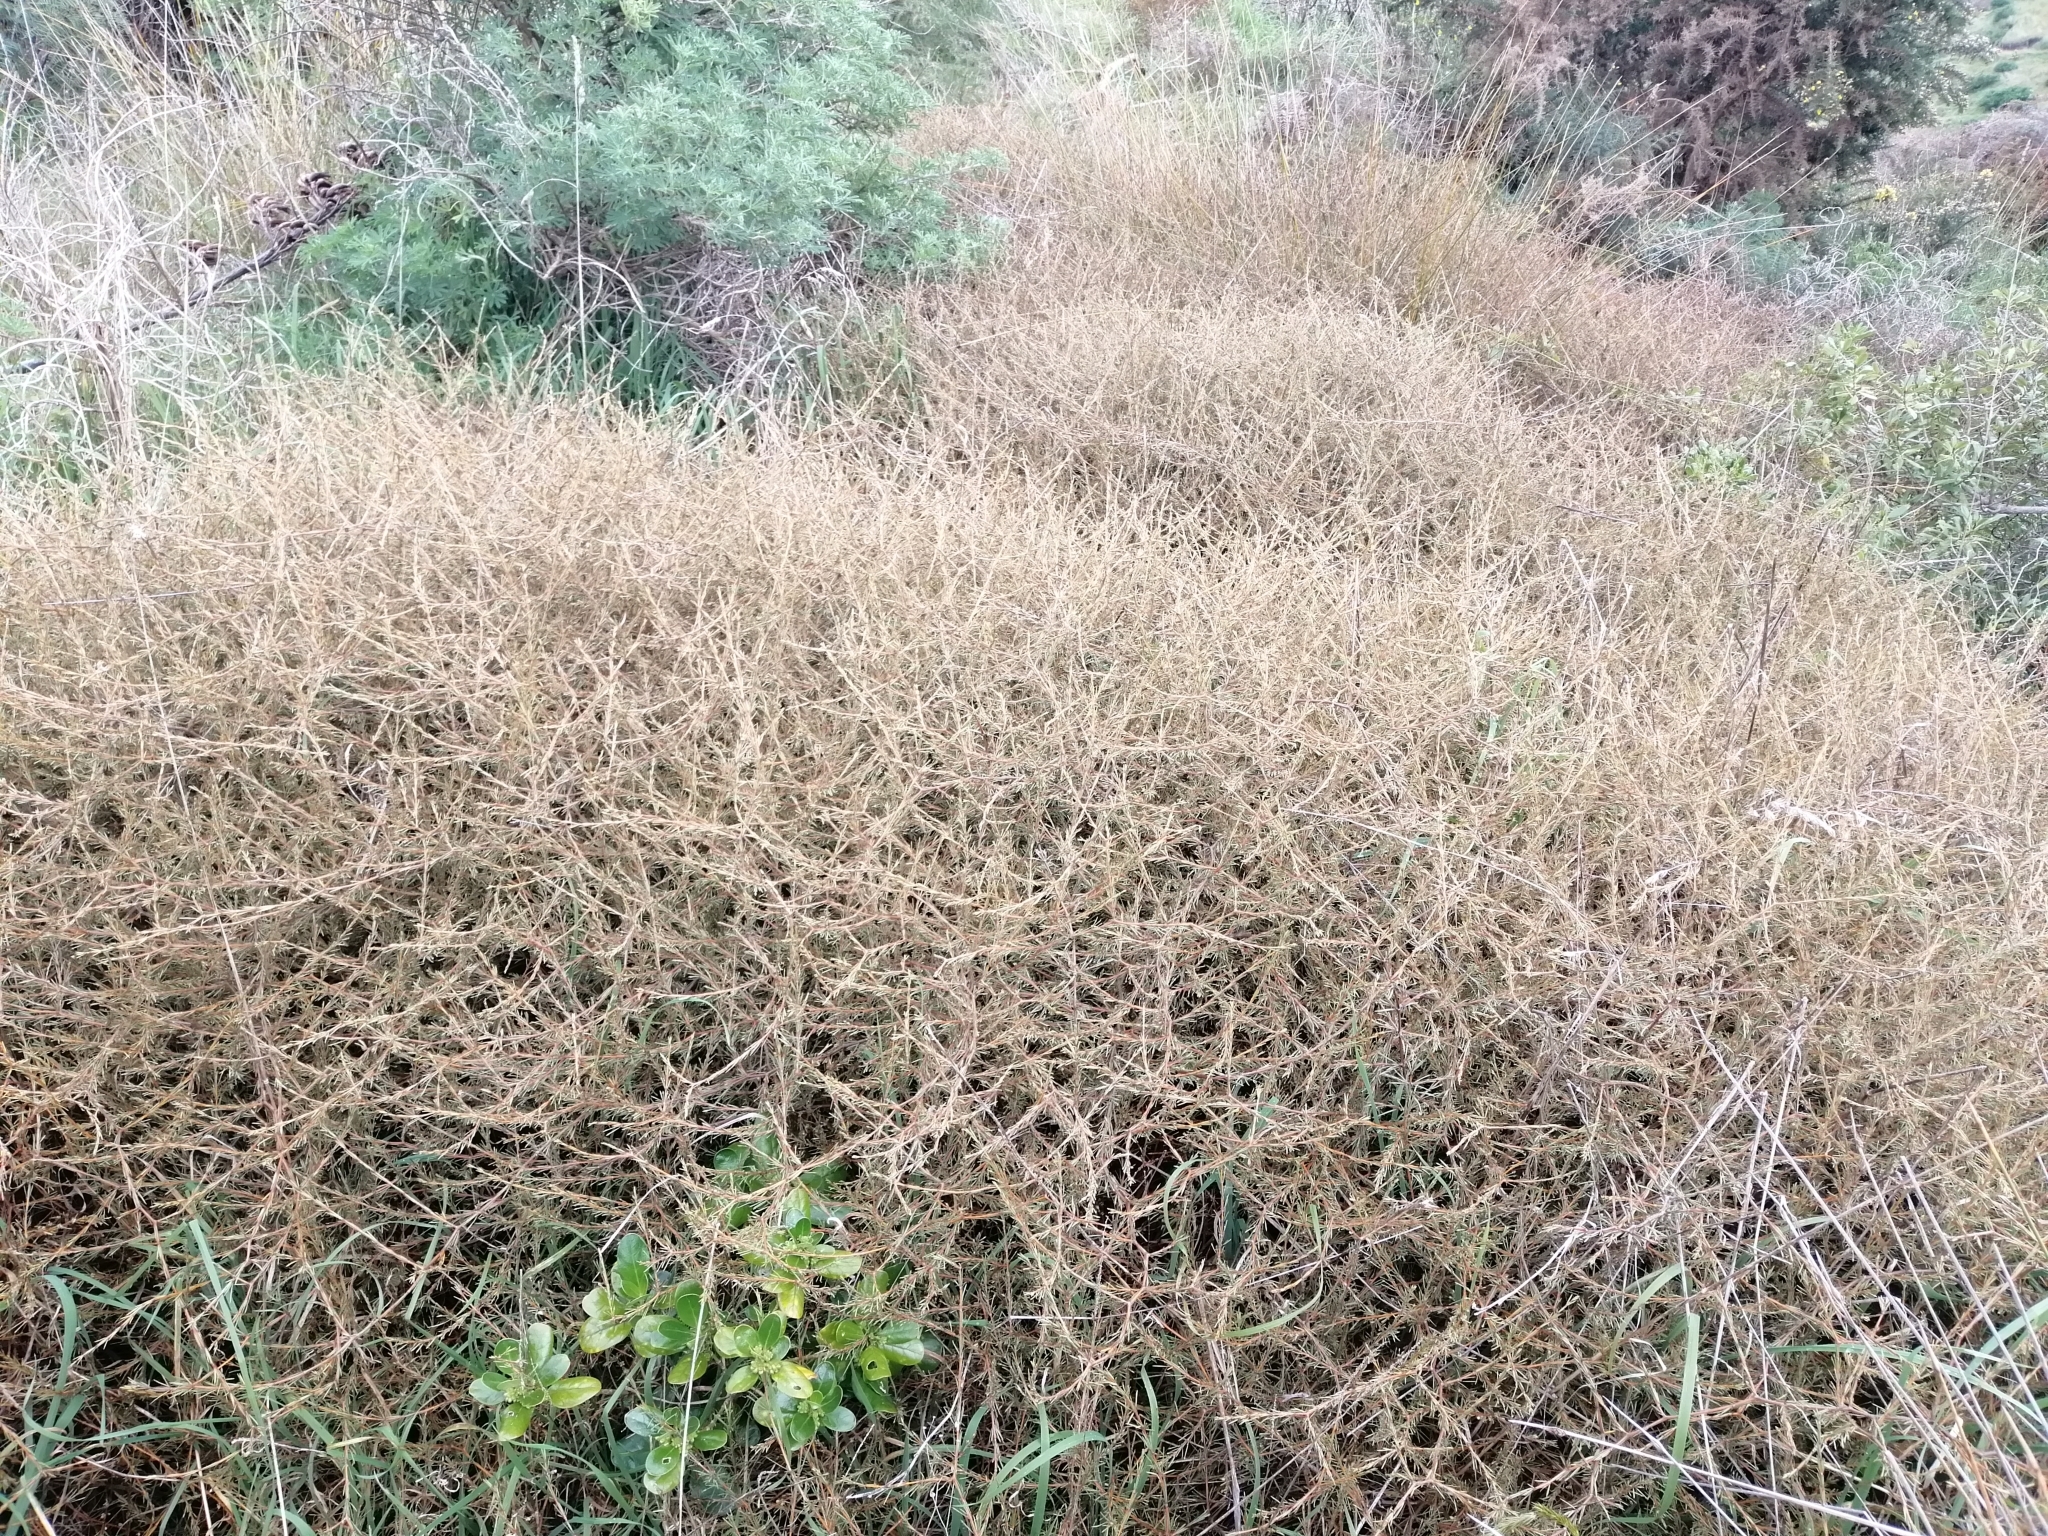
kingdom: Plantae
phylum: Tracheophyta
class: Magnoliopsida
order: Gentianales
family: Rubiaceae
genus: Coprosma
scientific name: Coprosma acerosa
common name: Sand coprosma
